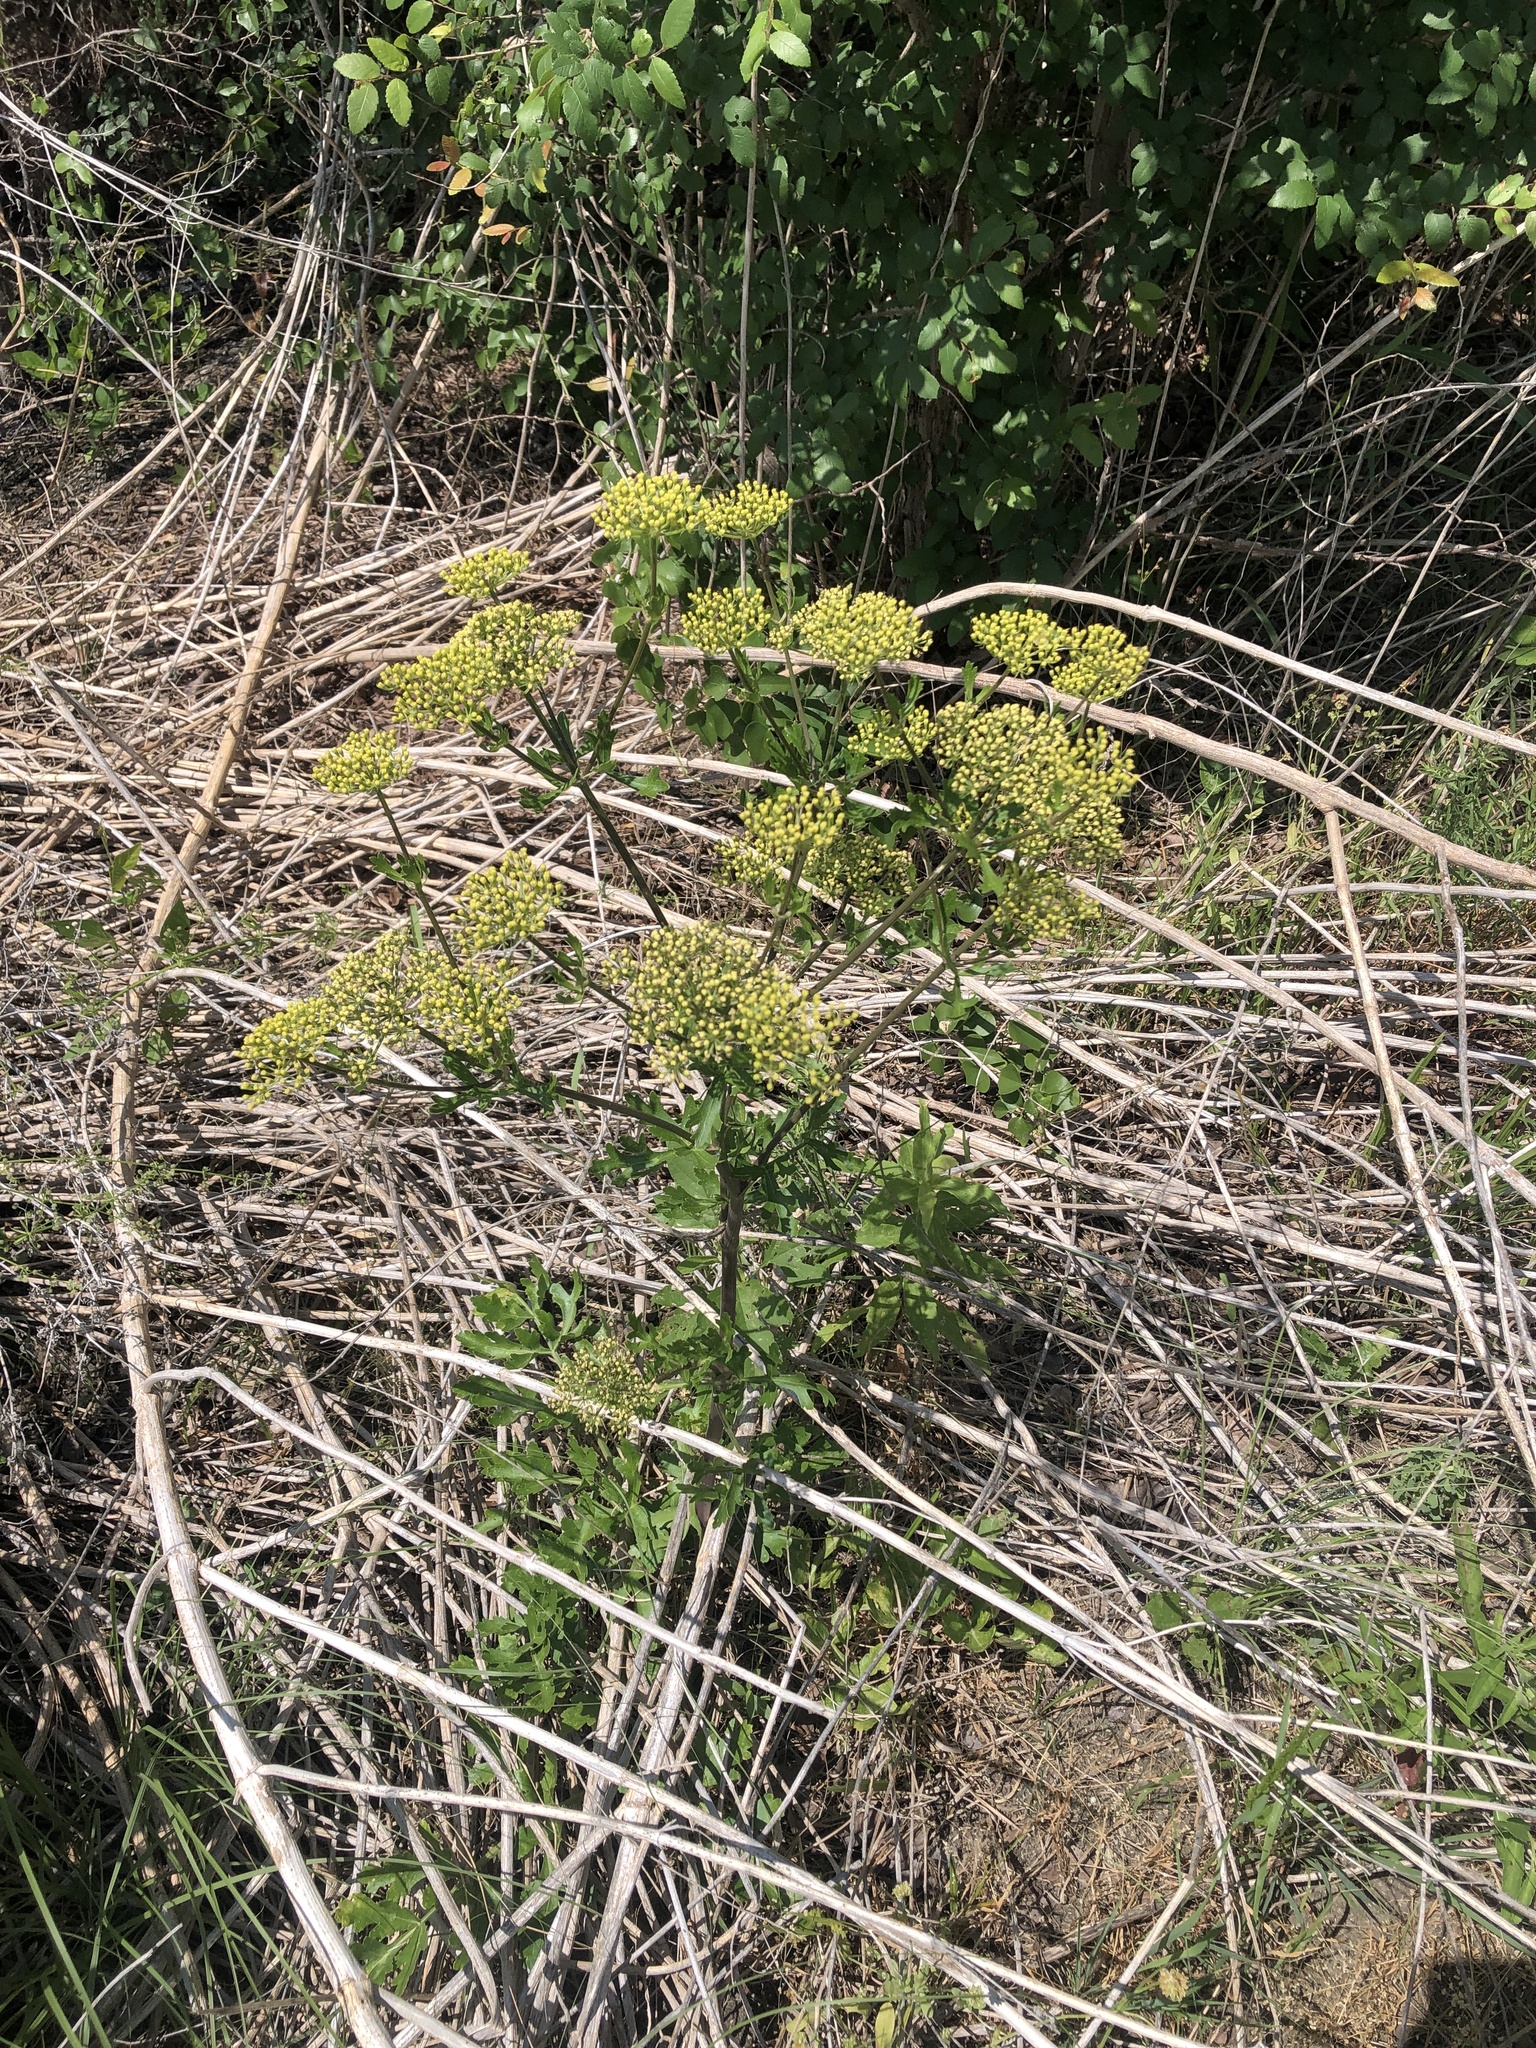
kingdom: Plantae
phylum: Tracheophyta
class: Magnoliopsida
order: Apiales
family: Apiaceae
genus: Polytaenia
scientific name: Polytaenia texana
